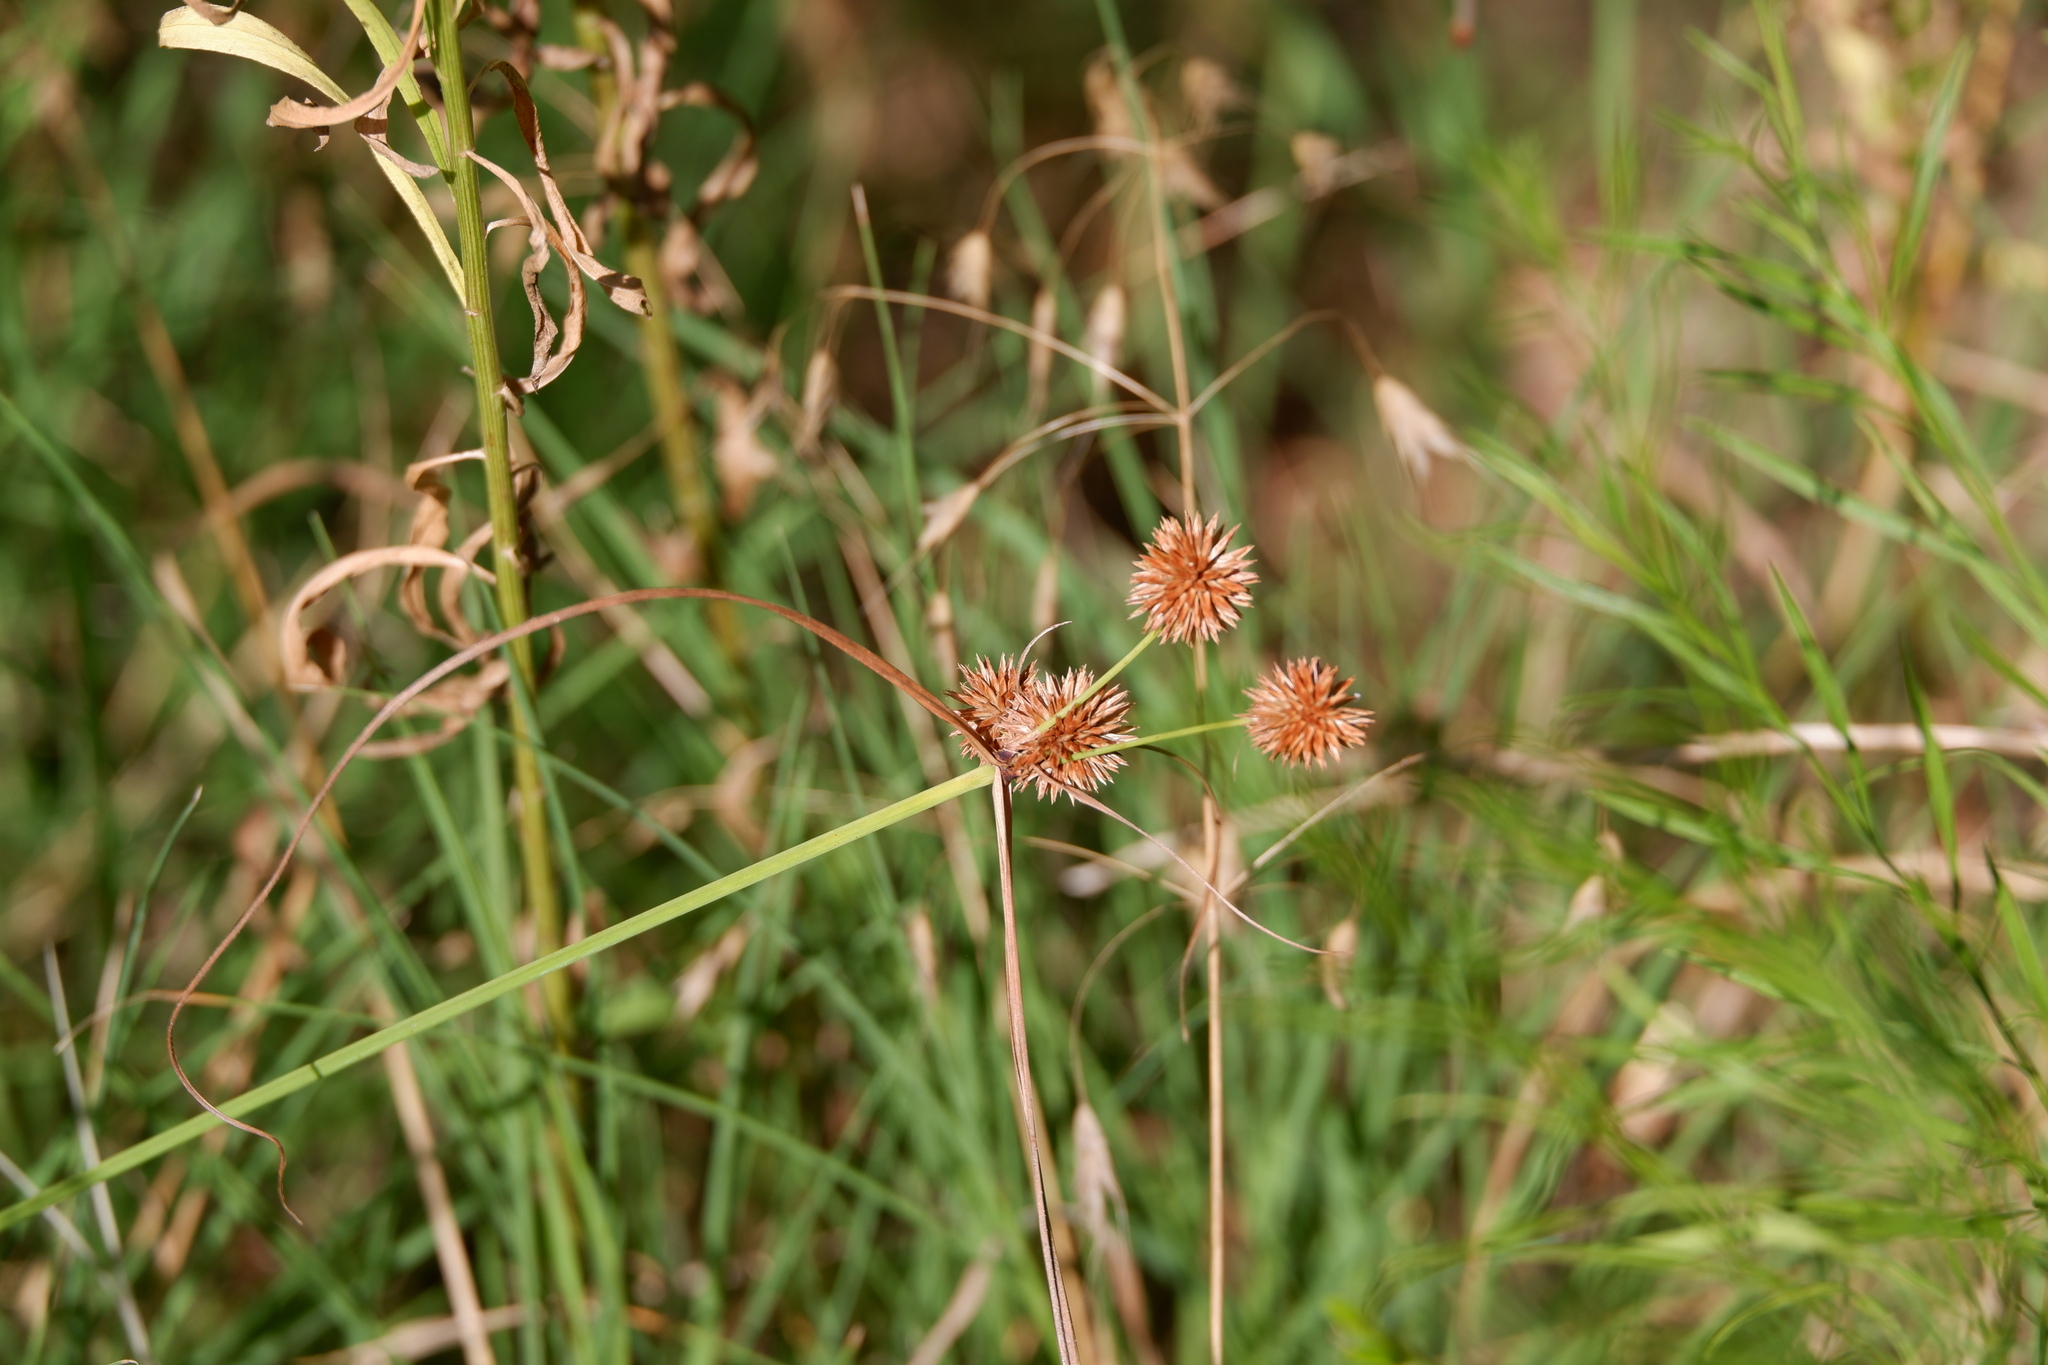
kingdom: Plantae
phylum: Tracheophyta
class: Liliopsida
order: Poales
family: Cyperaceae
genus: Cyperus
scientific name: Cyperus echinatus
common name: Teasel sedge
